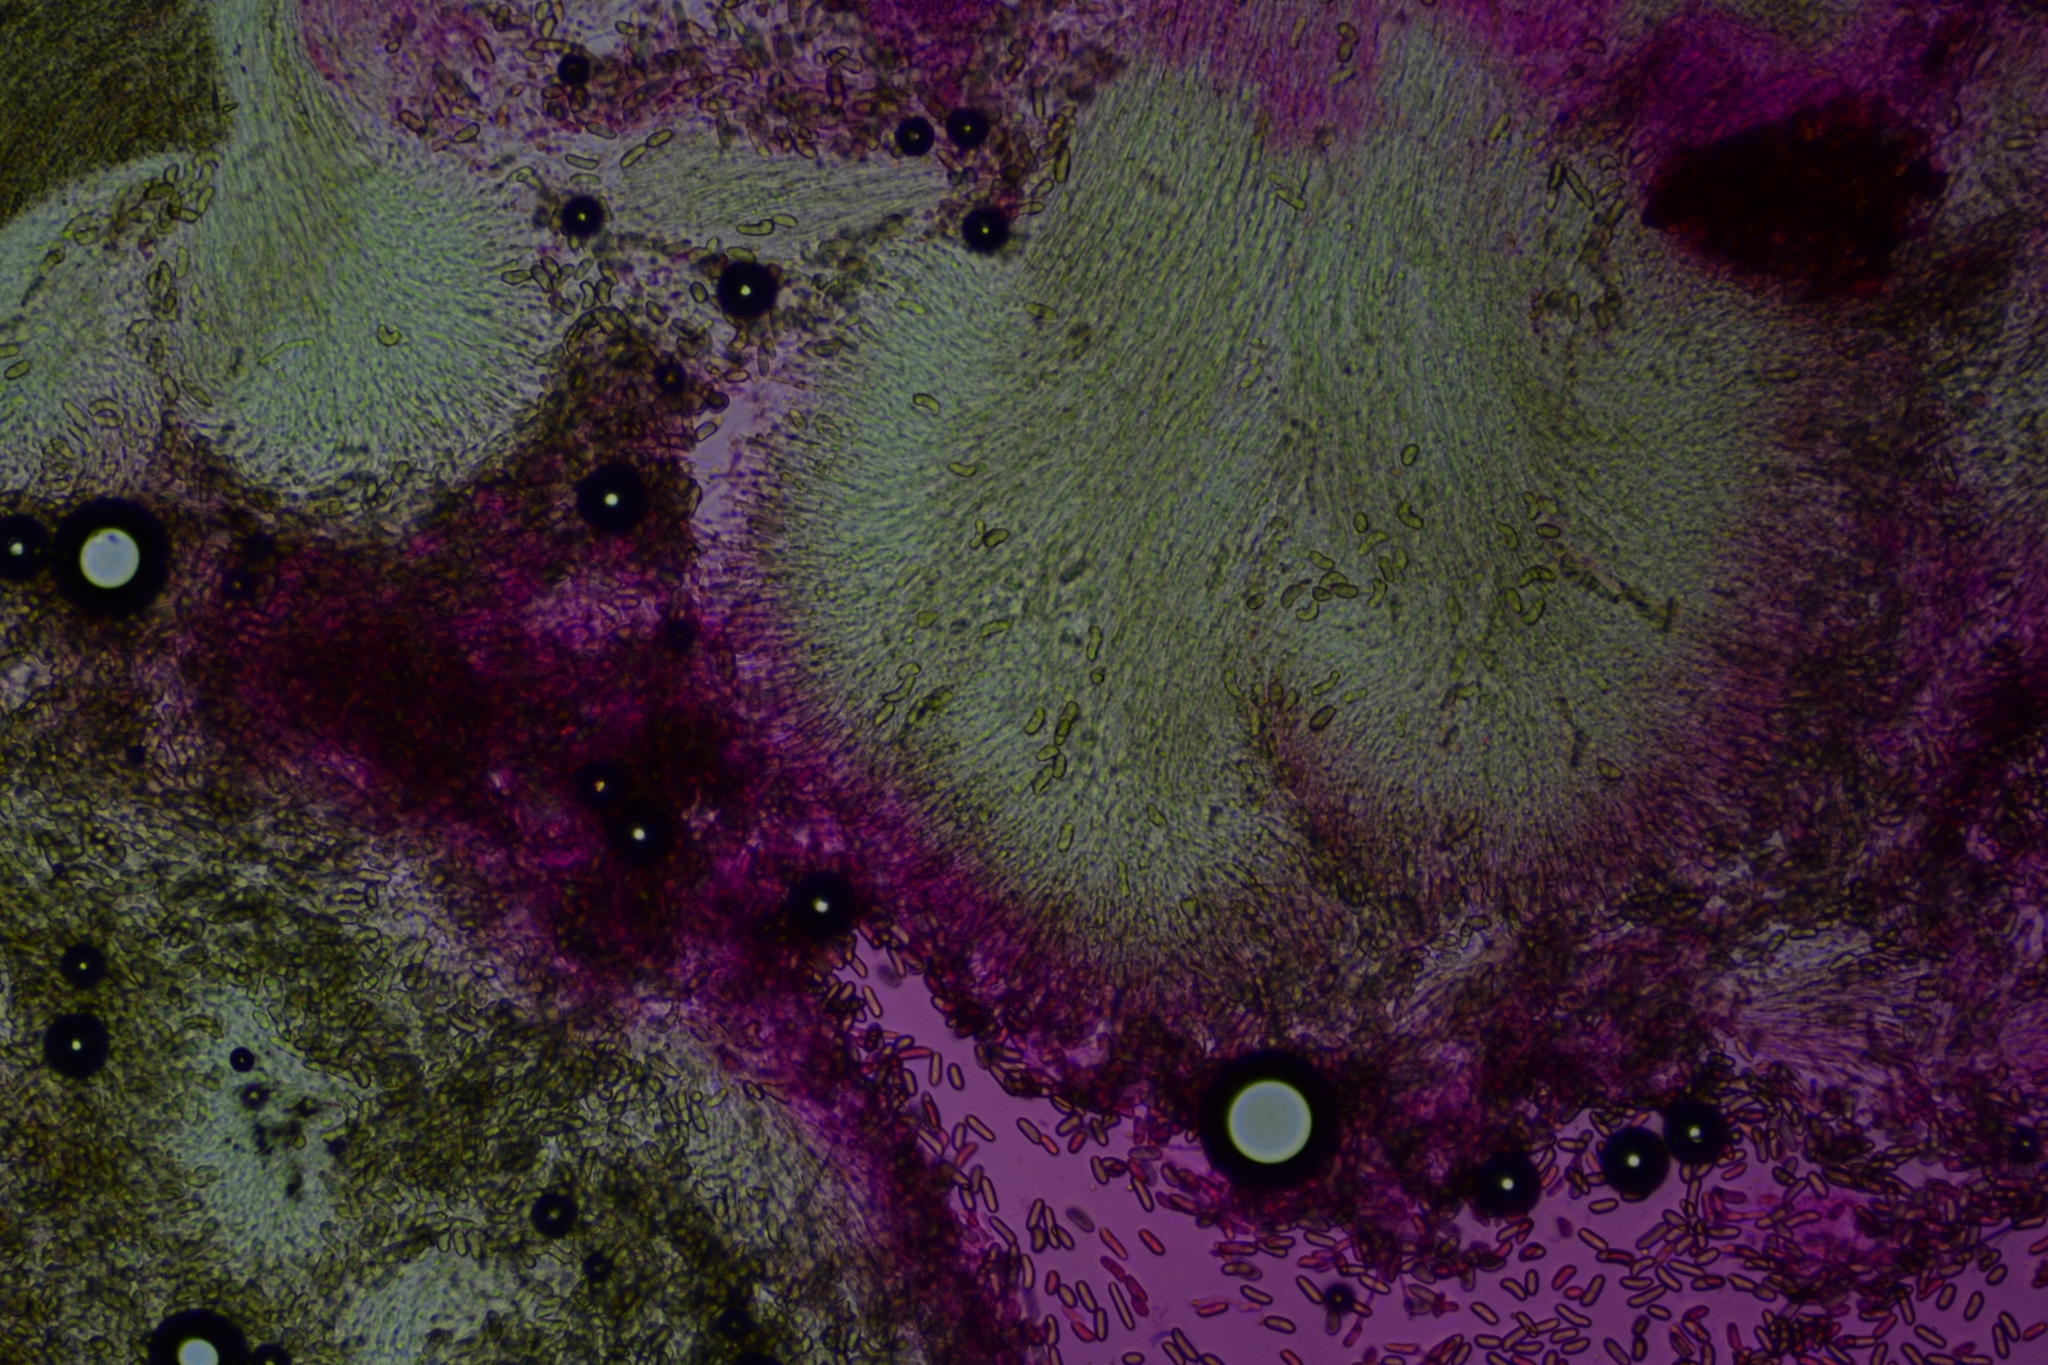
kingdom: Fungi
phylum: Basidiomycota
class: Agaricomycetes
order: Agaricales
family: Pleurotaceae
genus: Pleurotus
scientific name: Pleurotus cystidiosus
